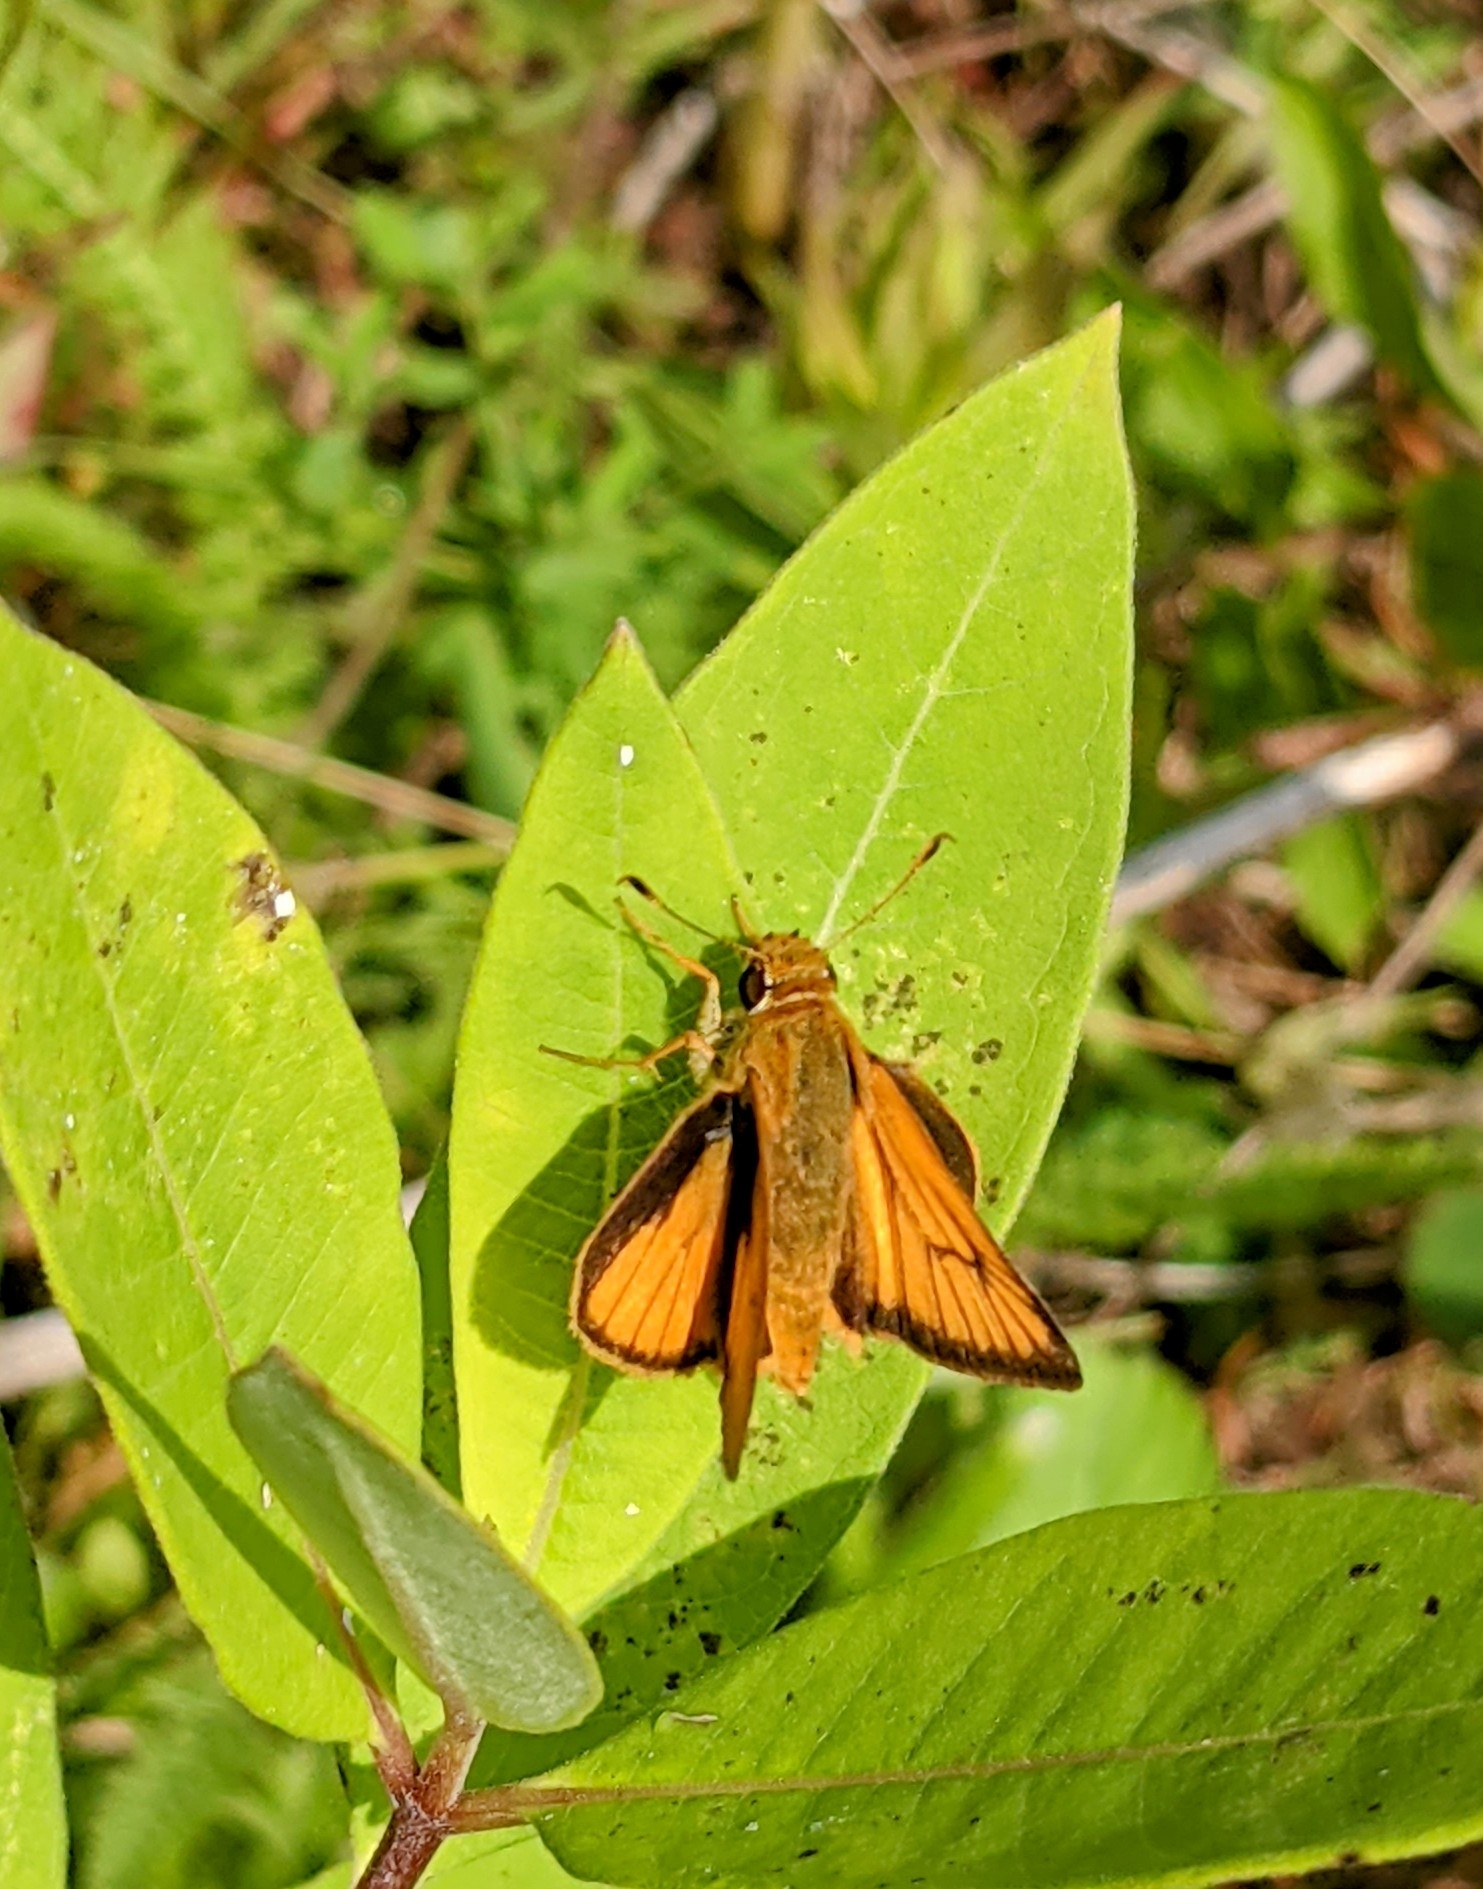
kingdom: Animalia
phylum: Arthropoda
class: Insecta
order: Lepidoptera
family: Hesperiidae
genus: Atrytone
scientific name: Atrytone delaware
